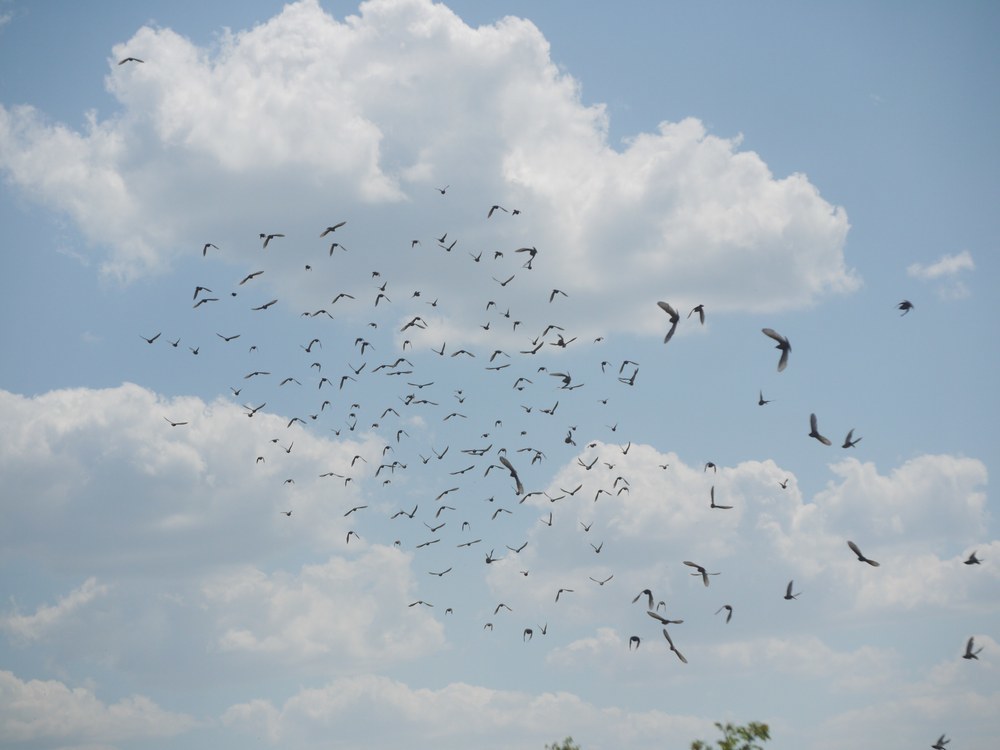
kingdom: Animalia
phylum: Chordata
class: Aves
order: Passeriformes
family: Sturnidae
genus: Sturnus
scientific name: Sturnus vulgaris
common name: Common starling
